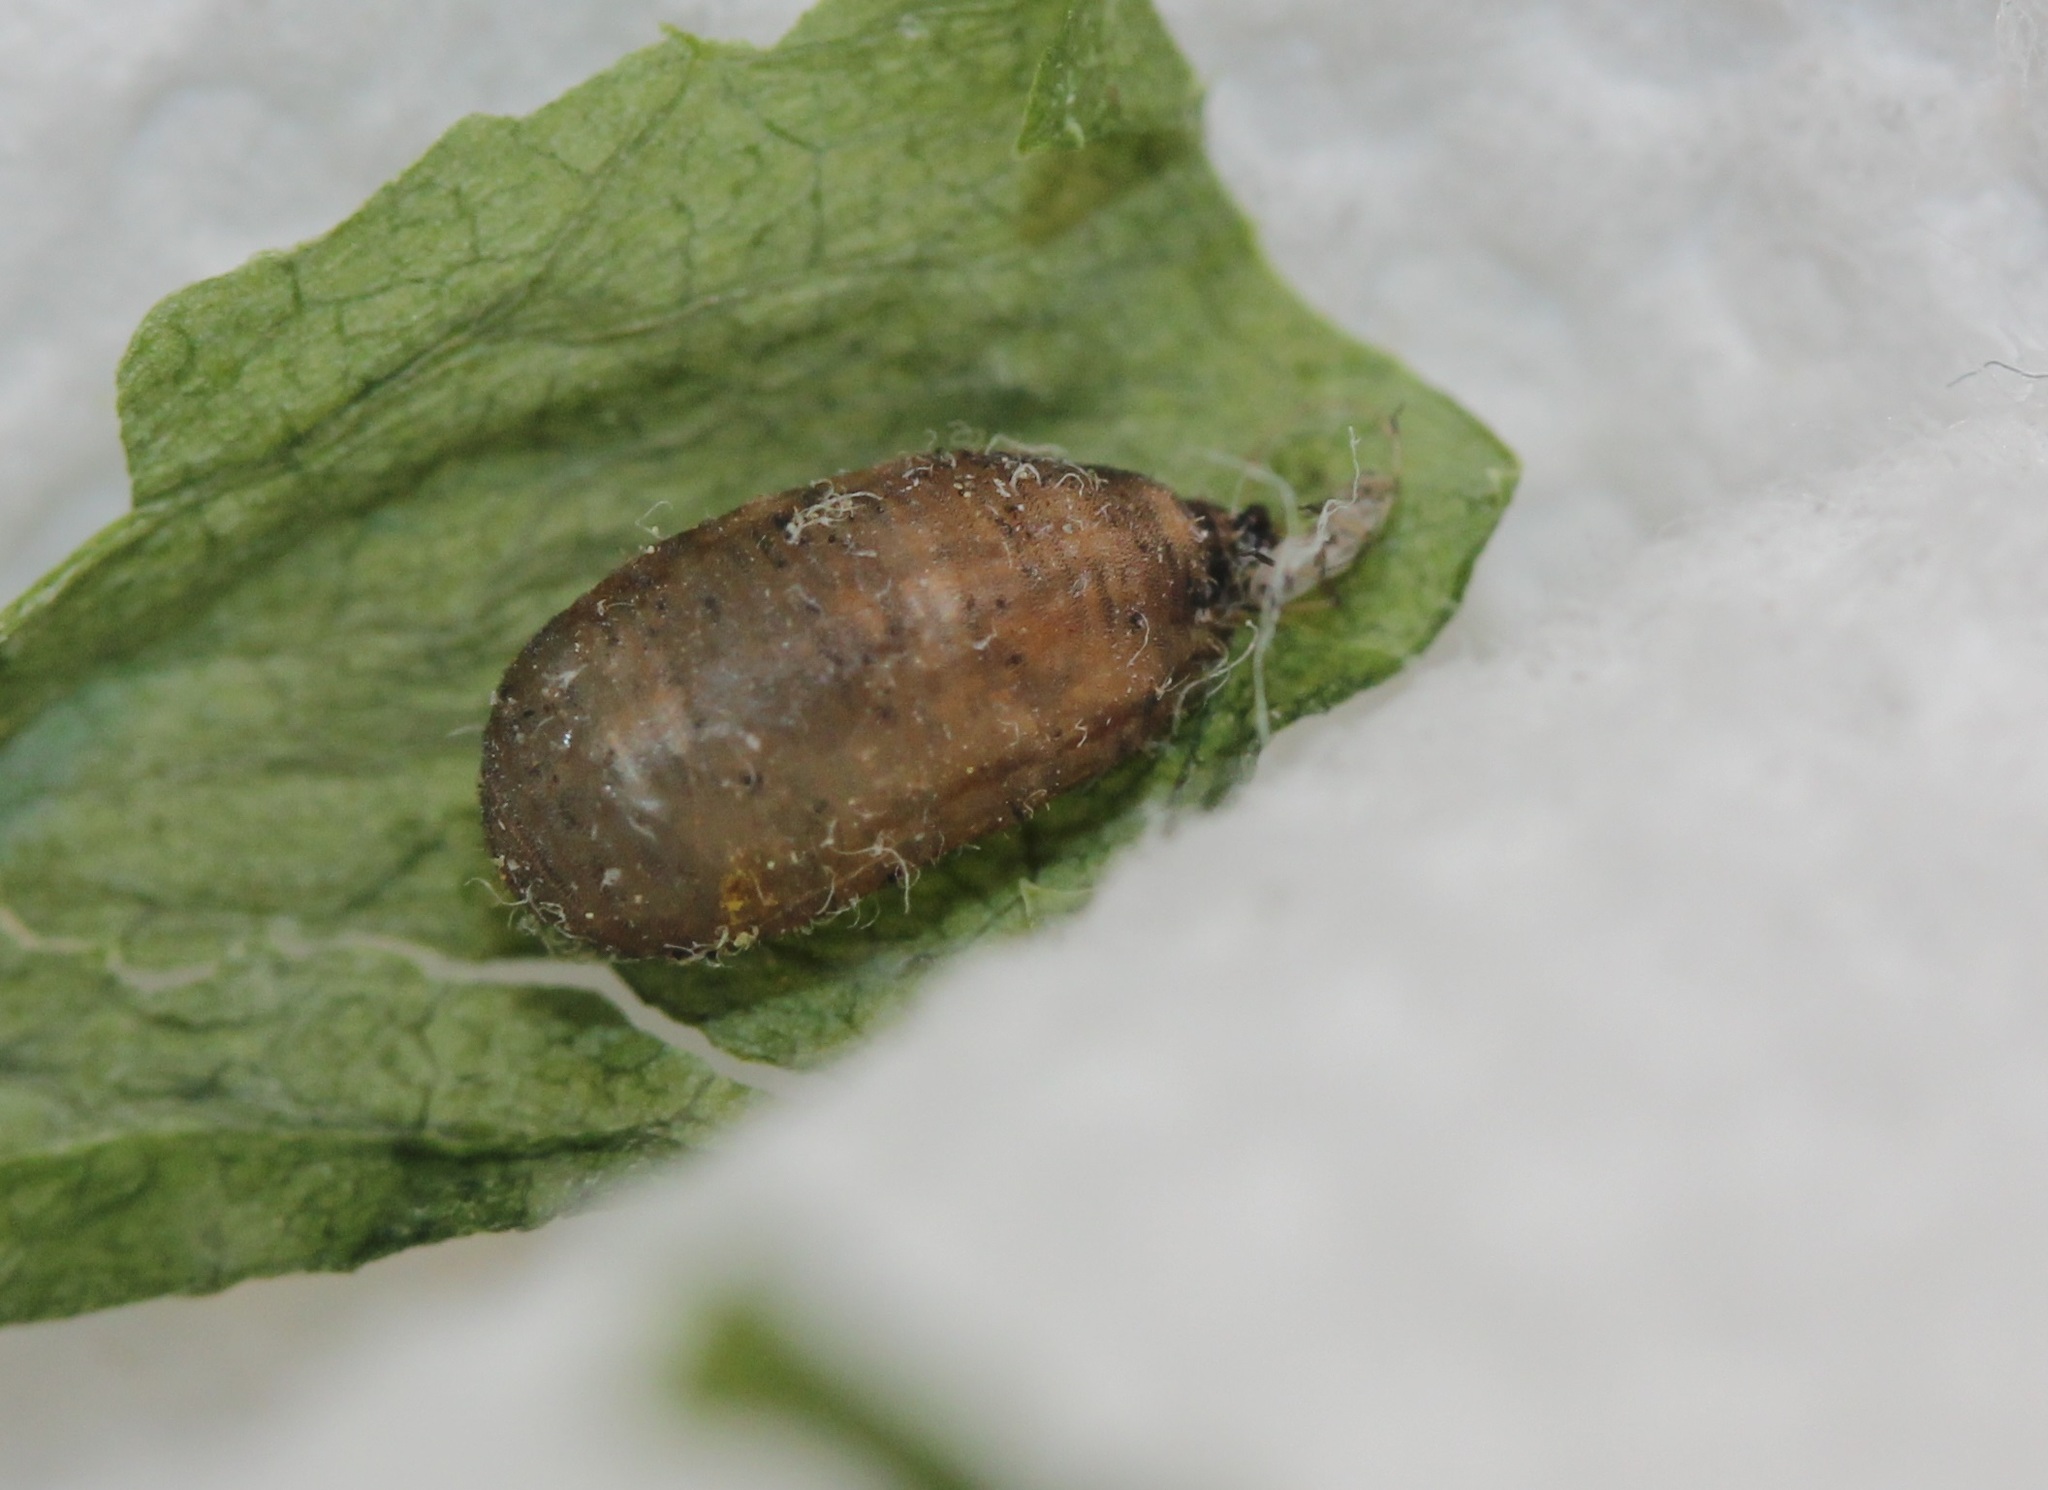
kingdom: Animalia
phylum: Arthropoda
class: Insecta
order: Diptera
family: Syrphidae
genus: Eupeodes
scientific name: Eupeodes americanus
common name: Long-tailed aphideater
